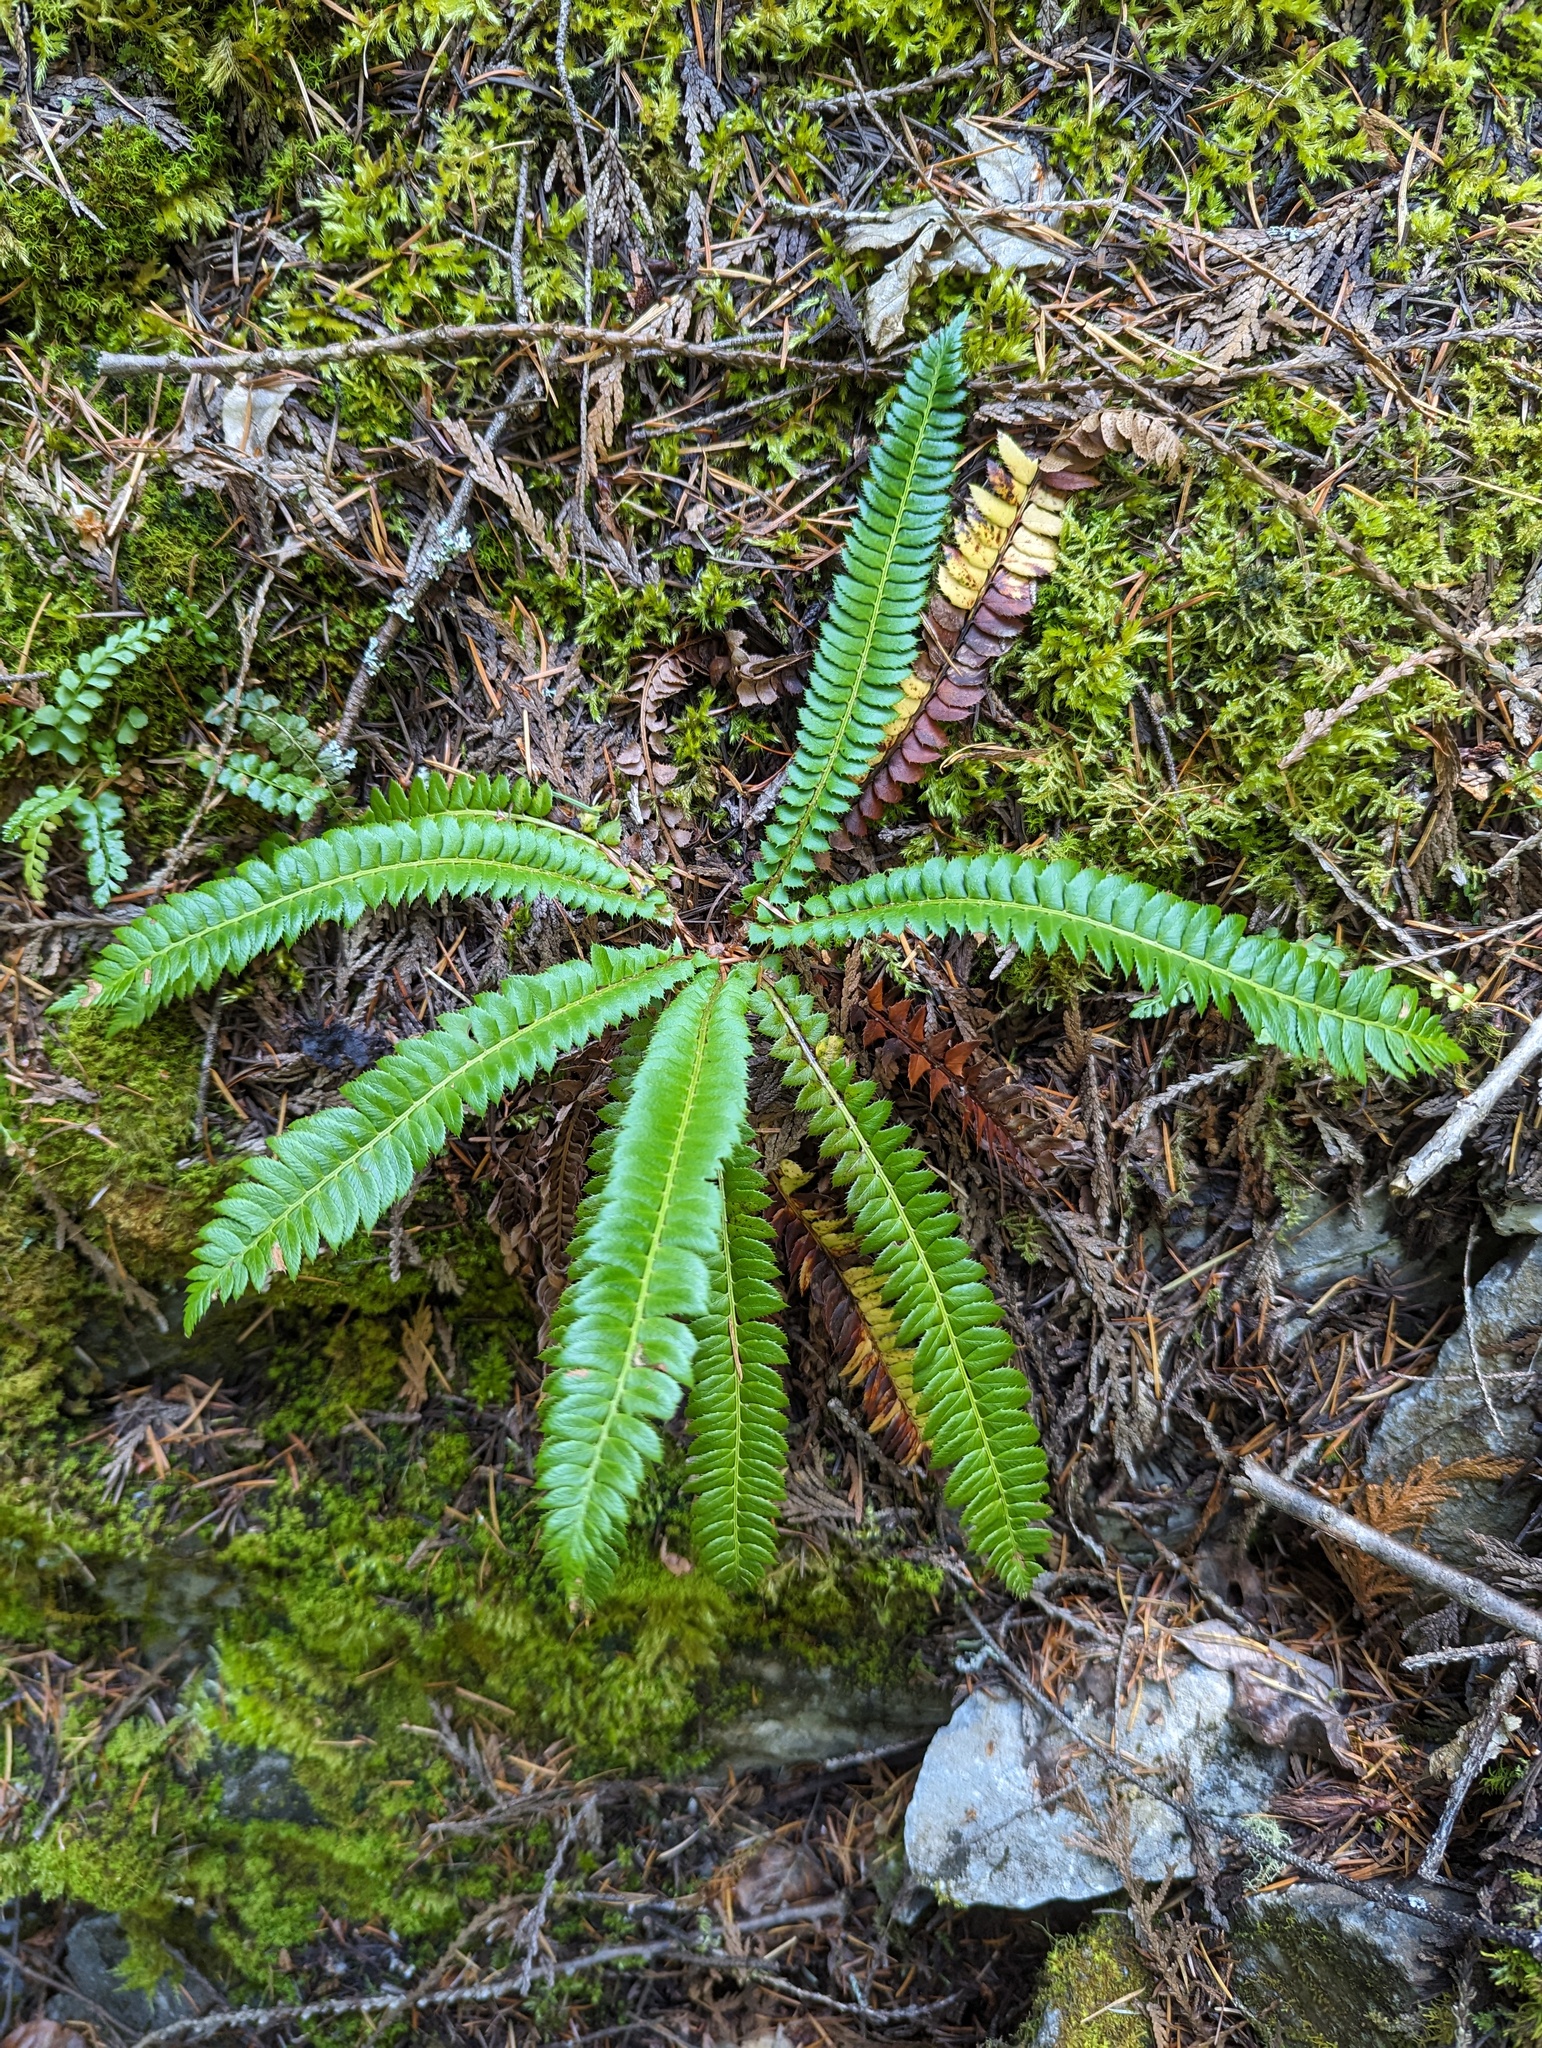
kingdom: Plantae
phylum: Tracheophyta
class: Polypodiopsida
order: Polypodiales
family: Dryopteridaceae
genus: Polystichum
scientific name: Polystichum lonchitis
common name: Holly fern
